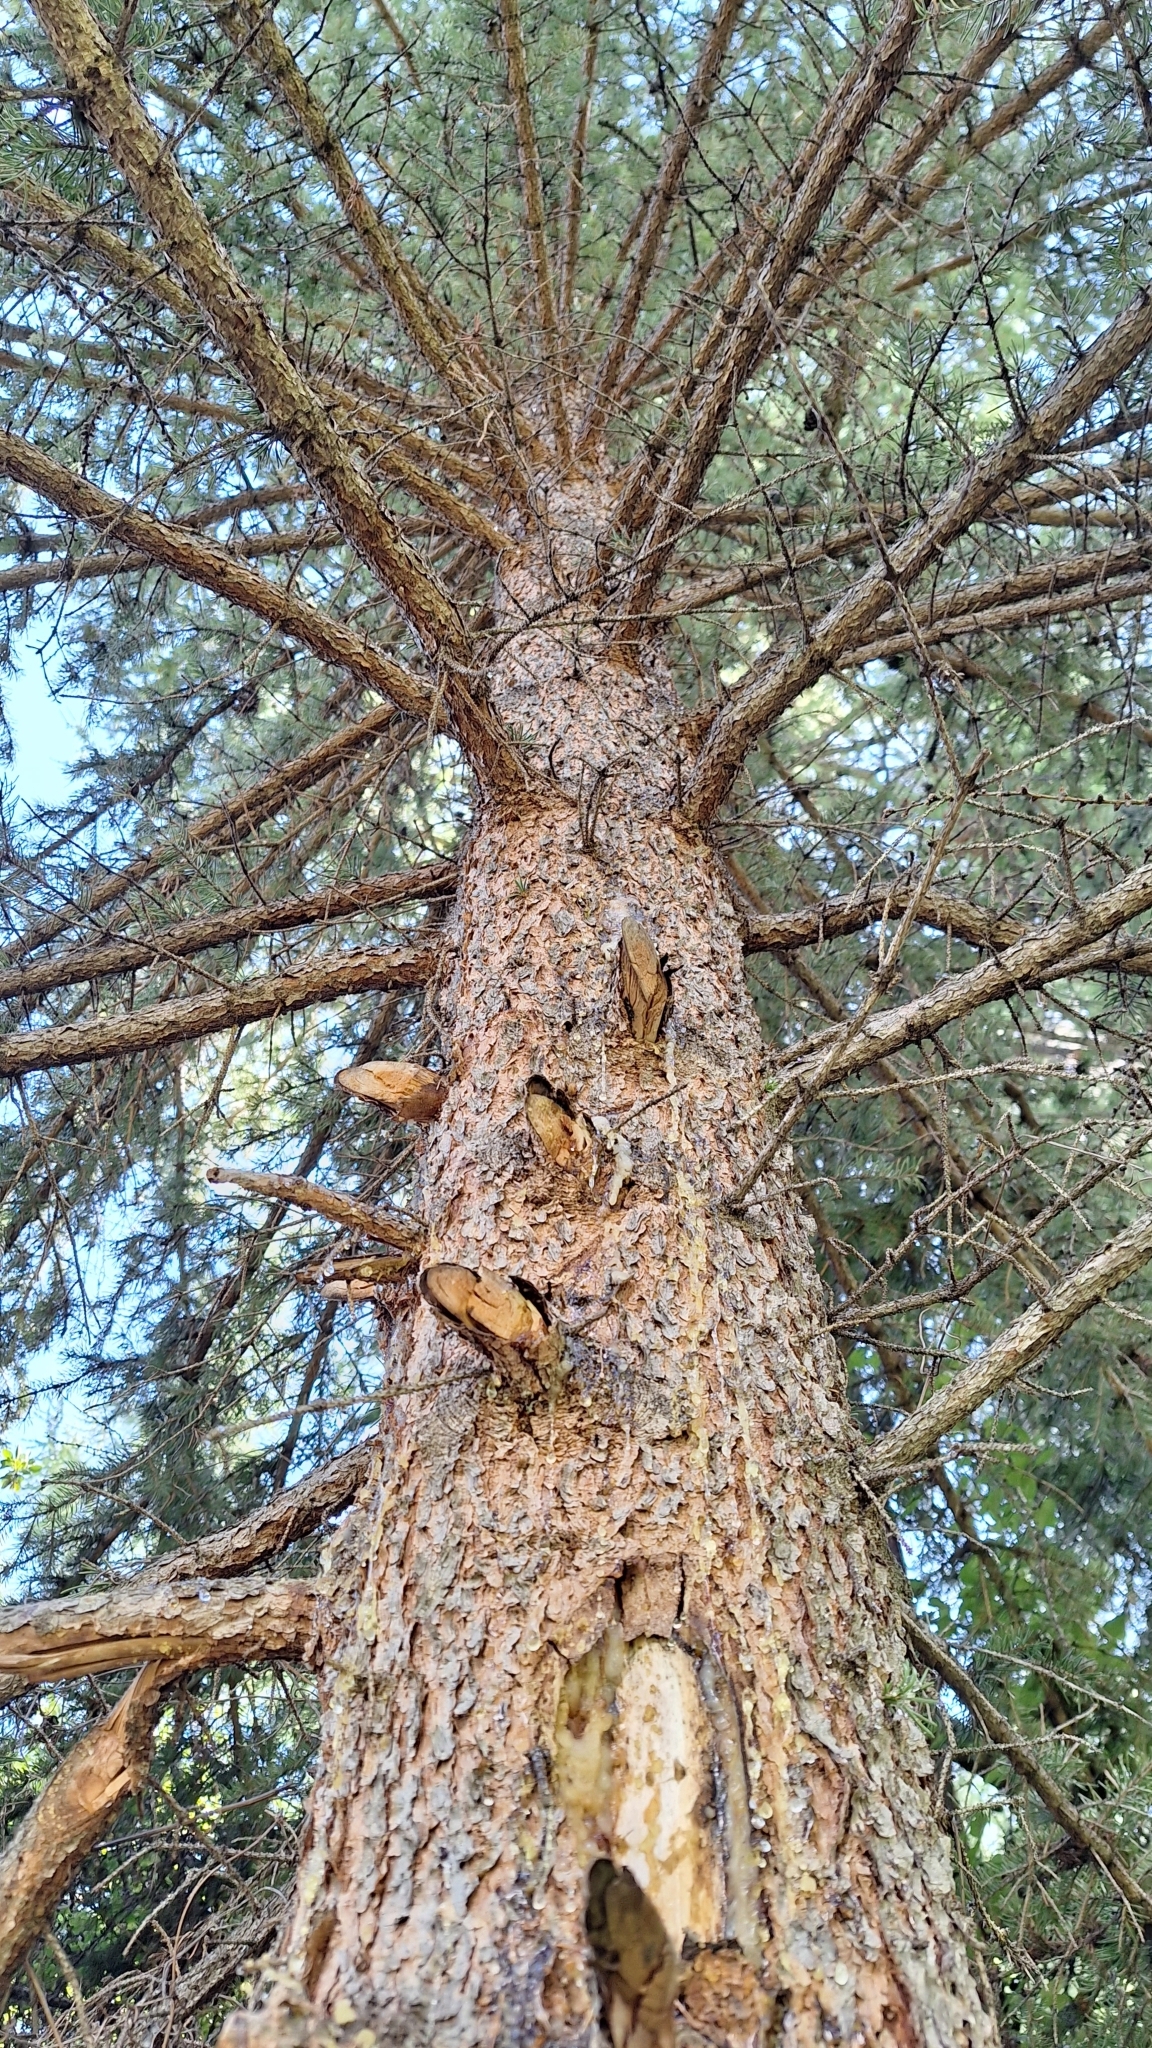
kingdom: Plantae
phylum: Tracheophyta
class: Pinopsida
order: Pinales
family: Pinaceae
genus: Picea
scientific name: Picea obovata
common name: Siberian spruce
